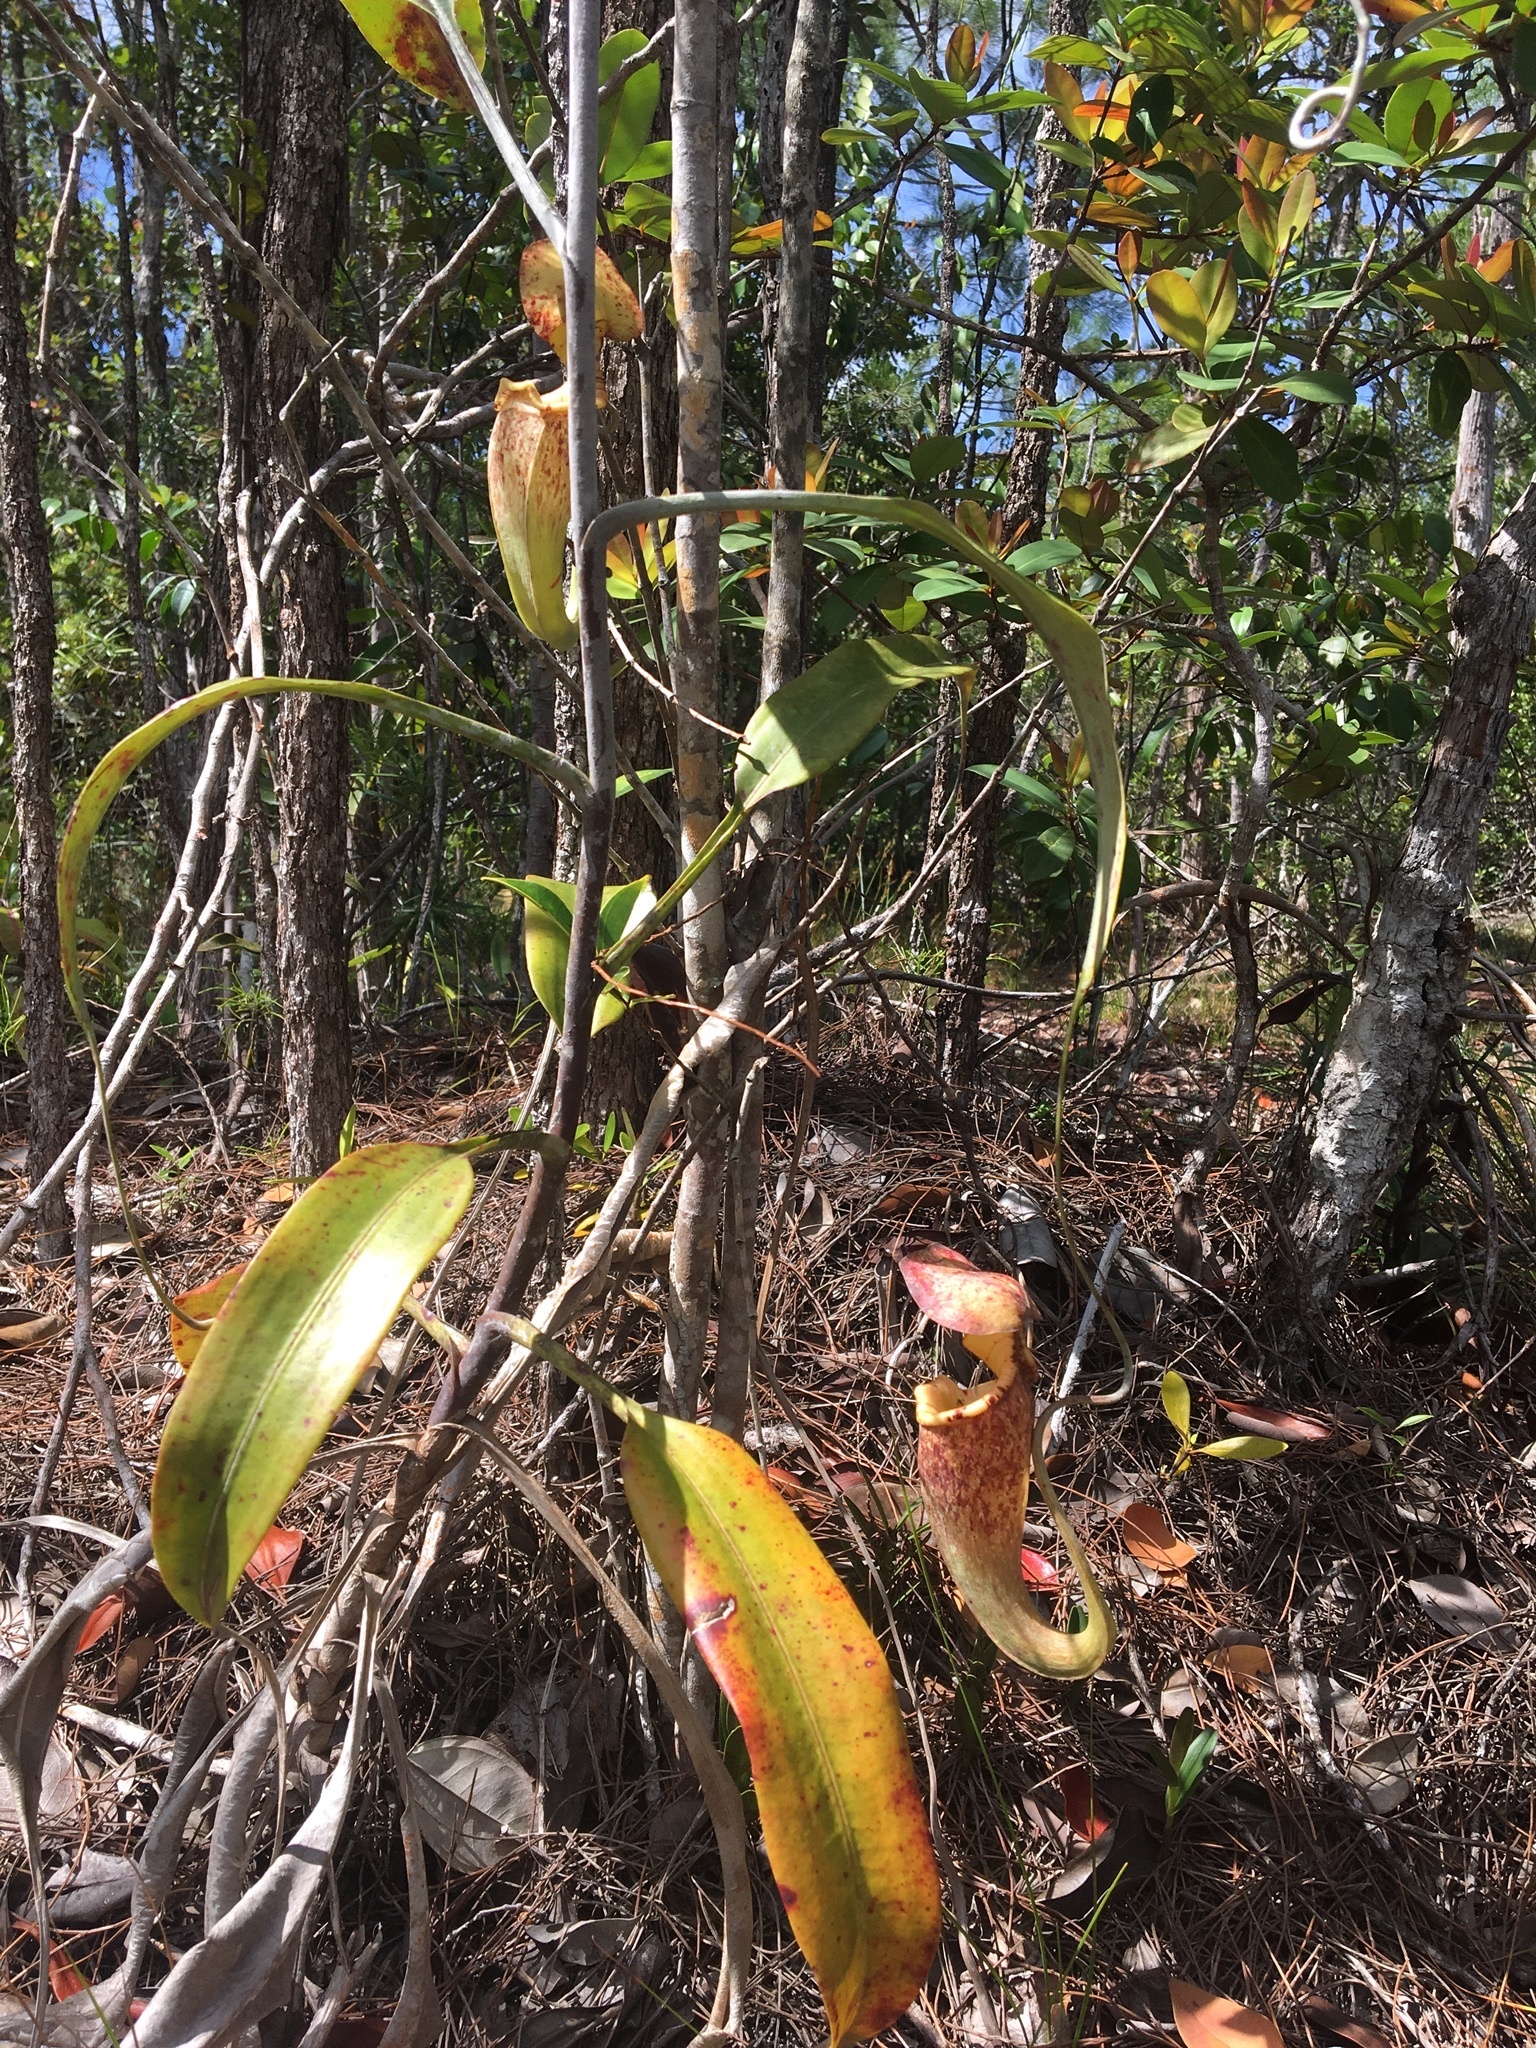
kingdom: Plantae
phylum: Tracheophyta
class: Magnoliopsida
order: Caryophyllales
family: Nepenthaceae
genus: Nepenthes
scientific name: Nepenthes rafflesiana
